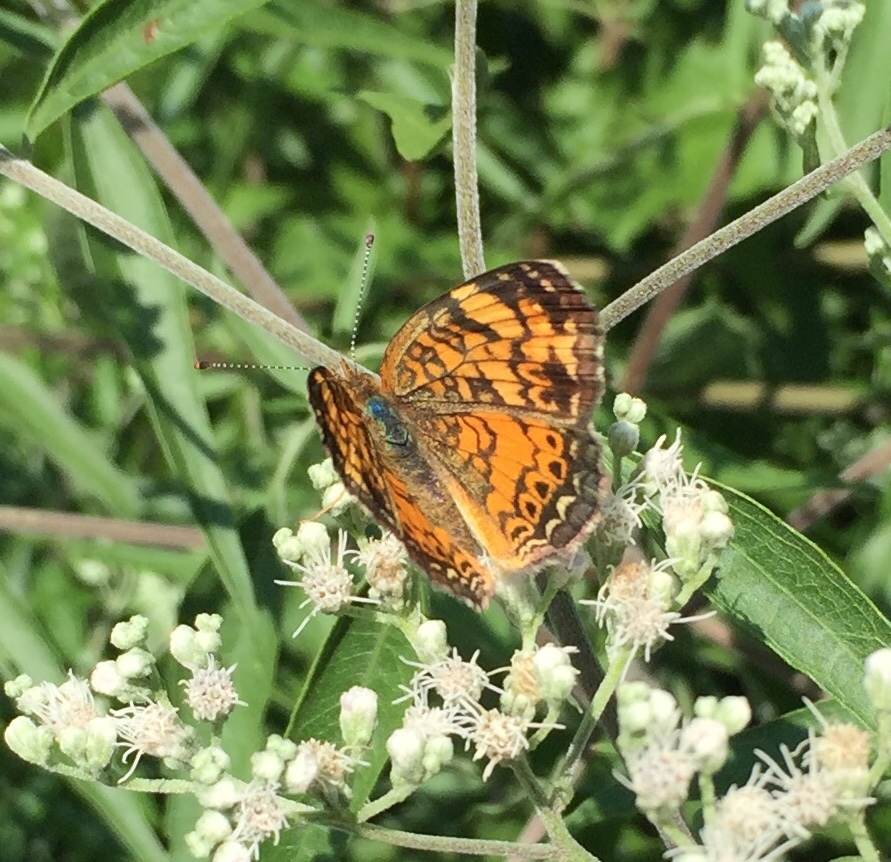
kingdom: Animalia
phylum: Arthropoda
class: Insecta
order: Lepidoptera
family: Nymphalidae
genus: Phyciodes
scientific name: Phyciodes tharos
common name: Pearl crescent
